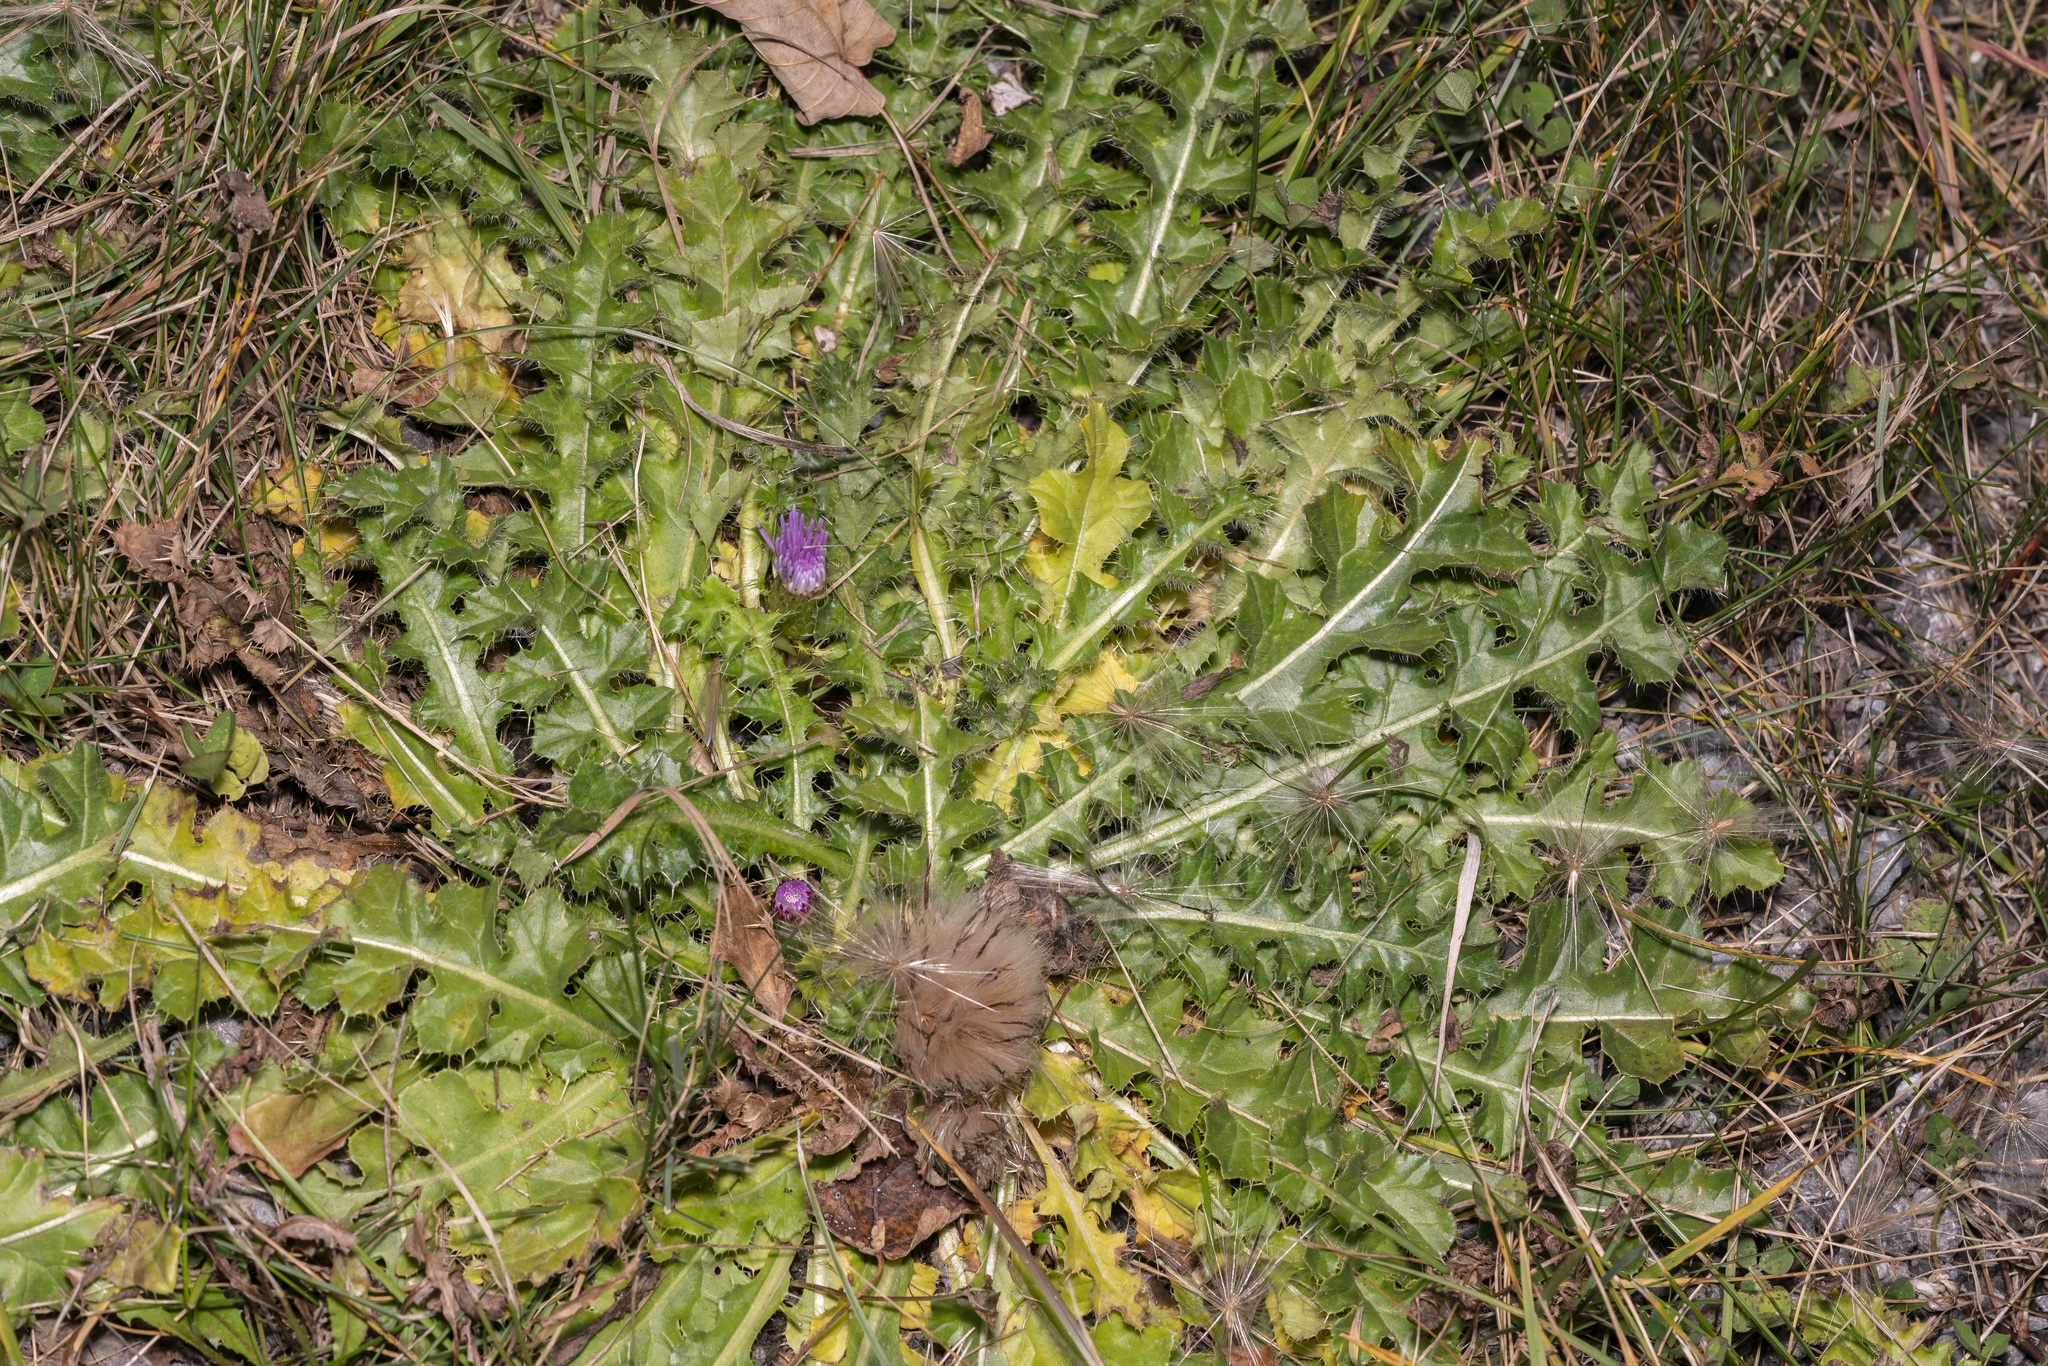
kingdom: Plantae
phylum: Tracheophyta
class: Magnoliopsida
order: Asterales
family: Asteraceae
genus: Cirsium
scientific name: Cirsium acaulon
